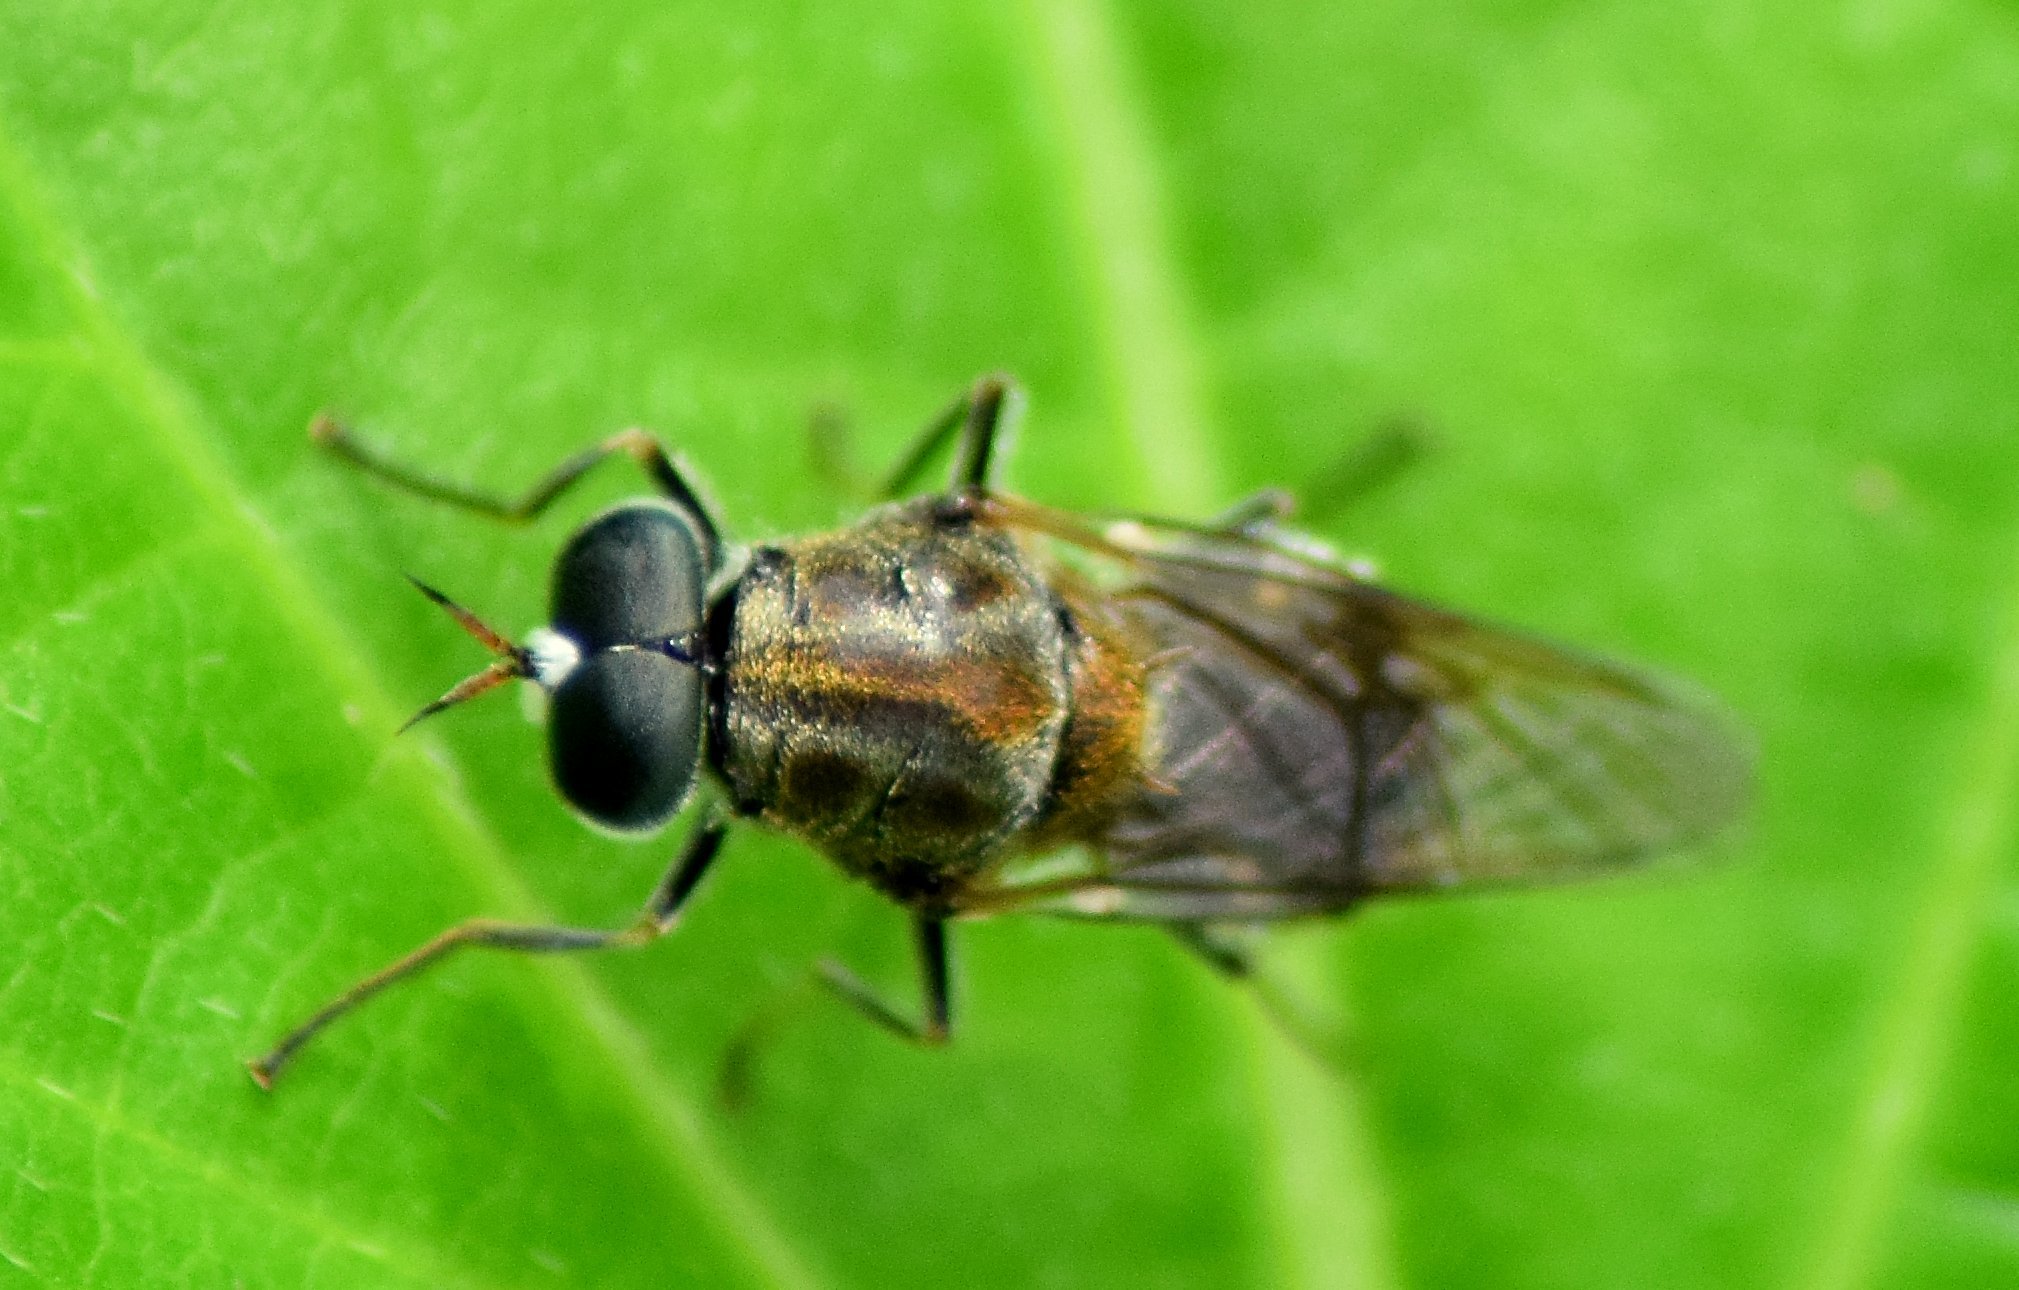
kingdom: Animalia
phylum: Arthropoda
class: Insecta
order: Diptera
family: Stratiomyidae
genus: Adoxomyia
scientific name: Adoxomyia heminopla
